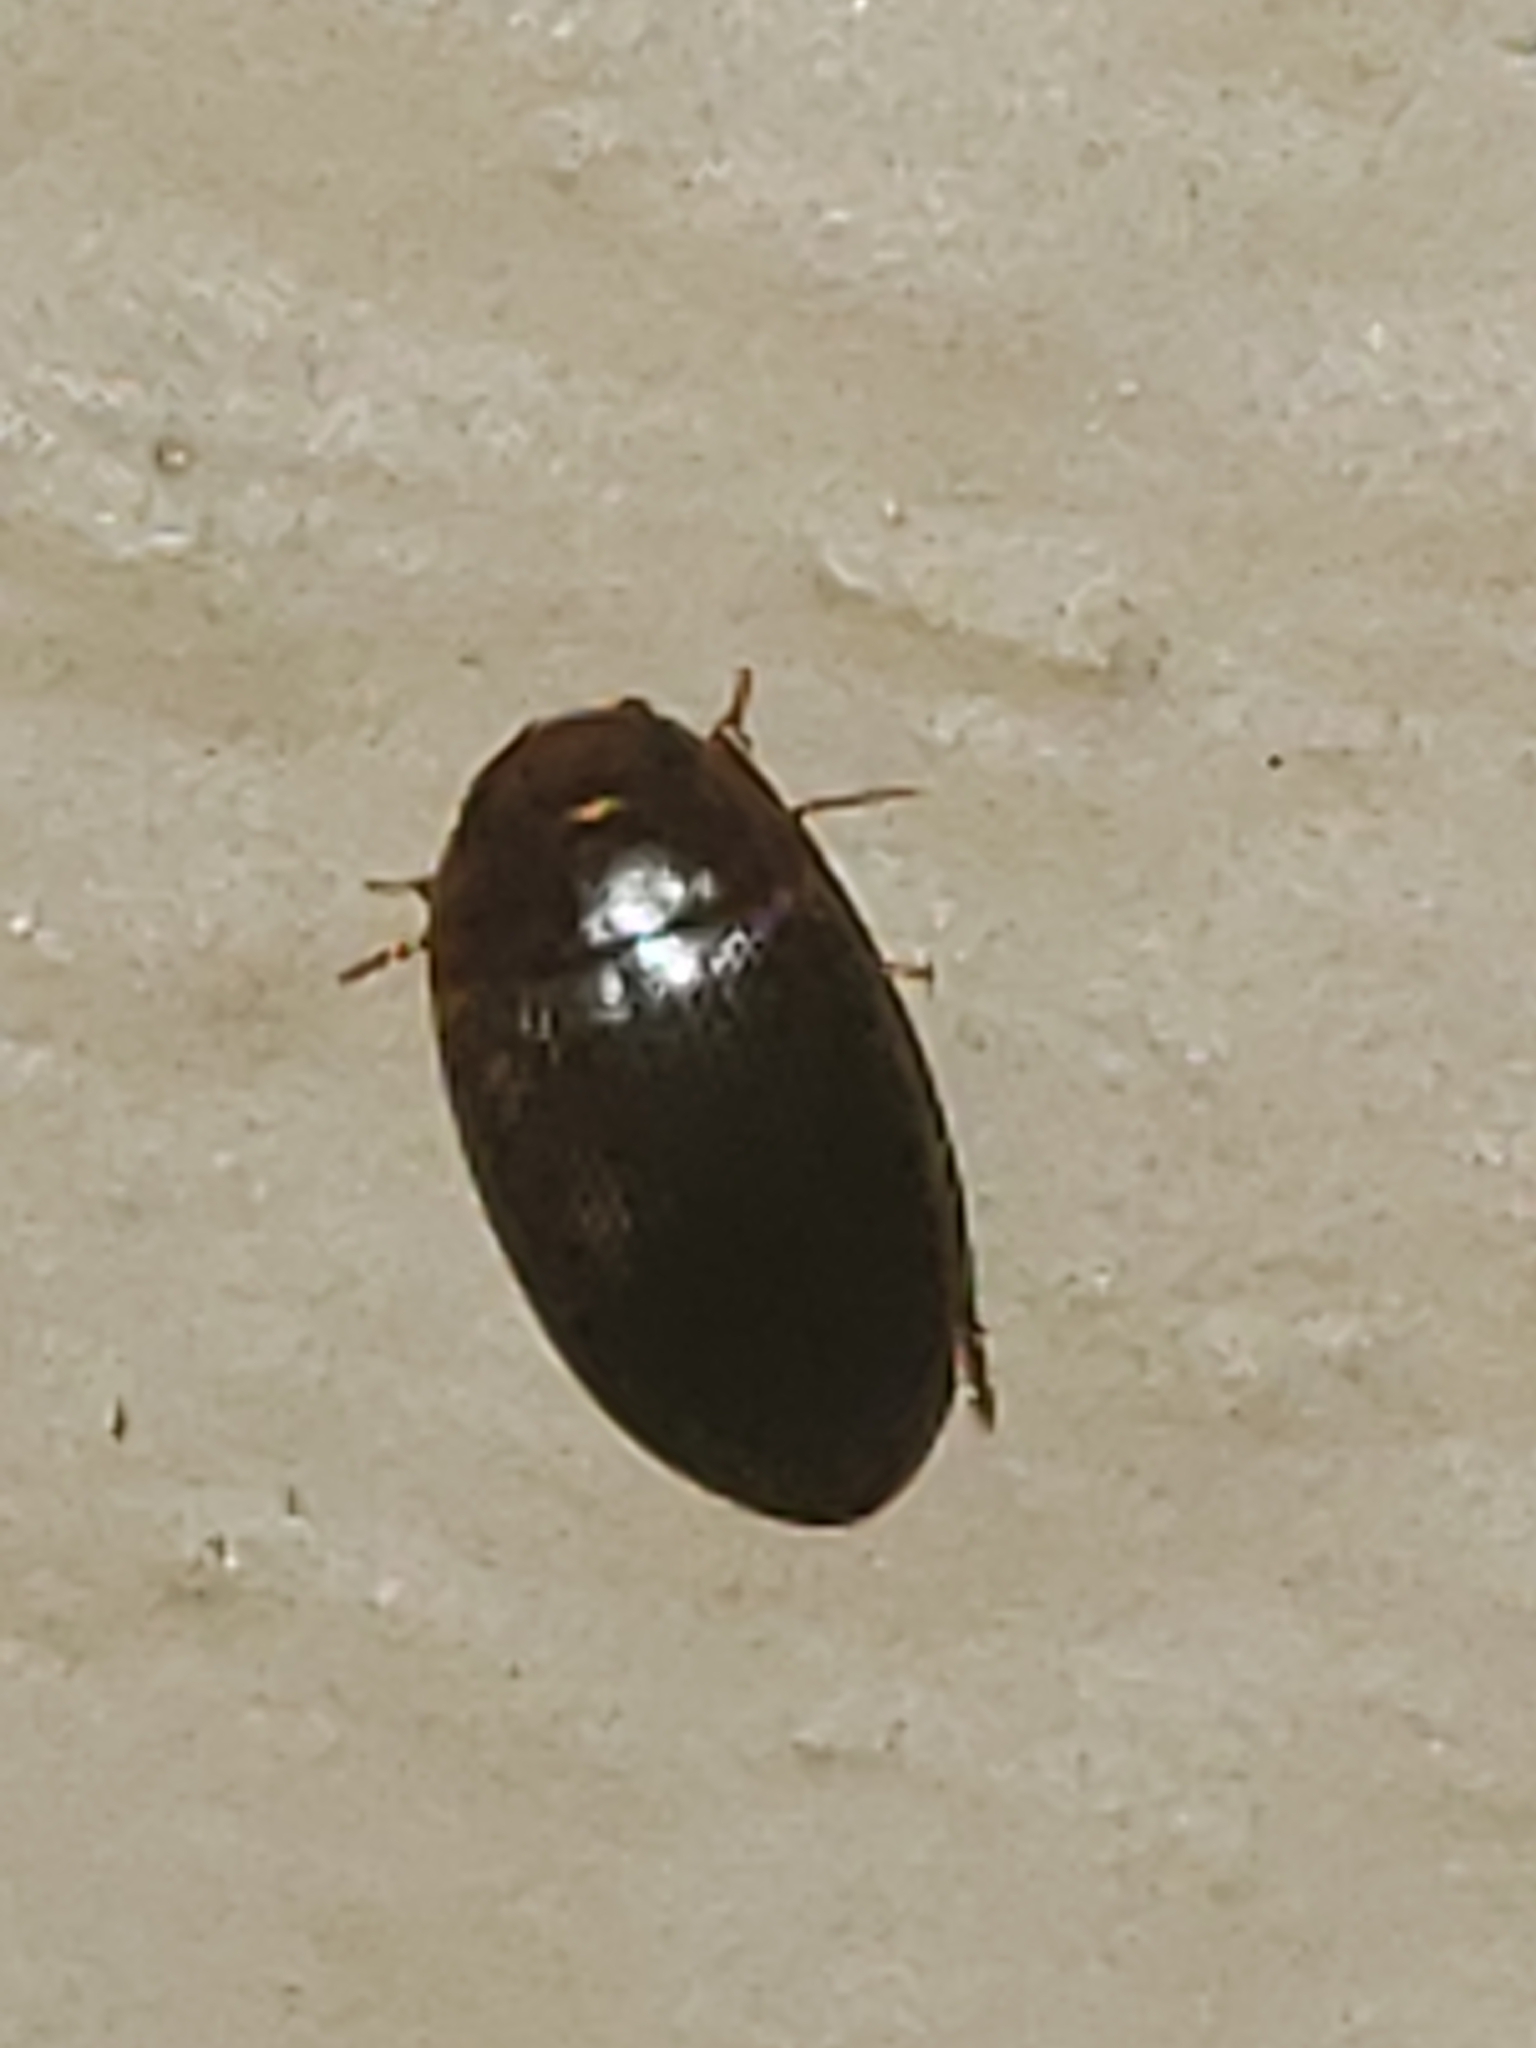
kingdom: Animalia
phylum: Arthropoda
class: Insecta
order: Coleoptera
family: Dytiscidae
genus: Copelatus
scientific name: Copelatus glyphicus
